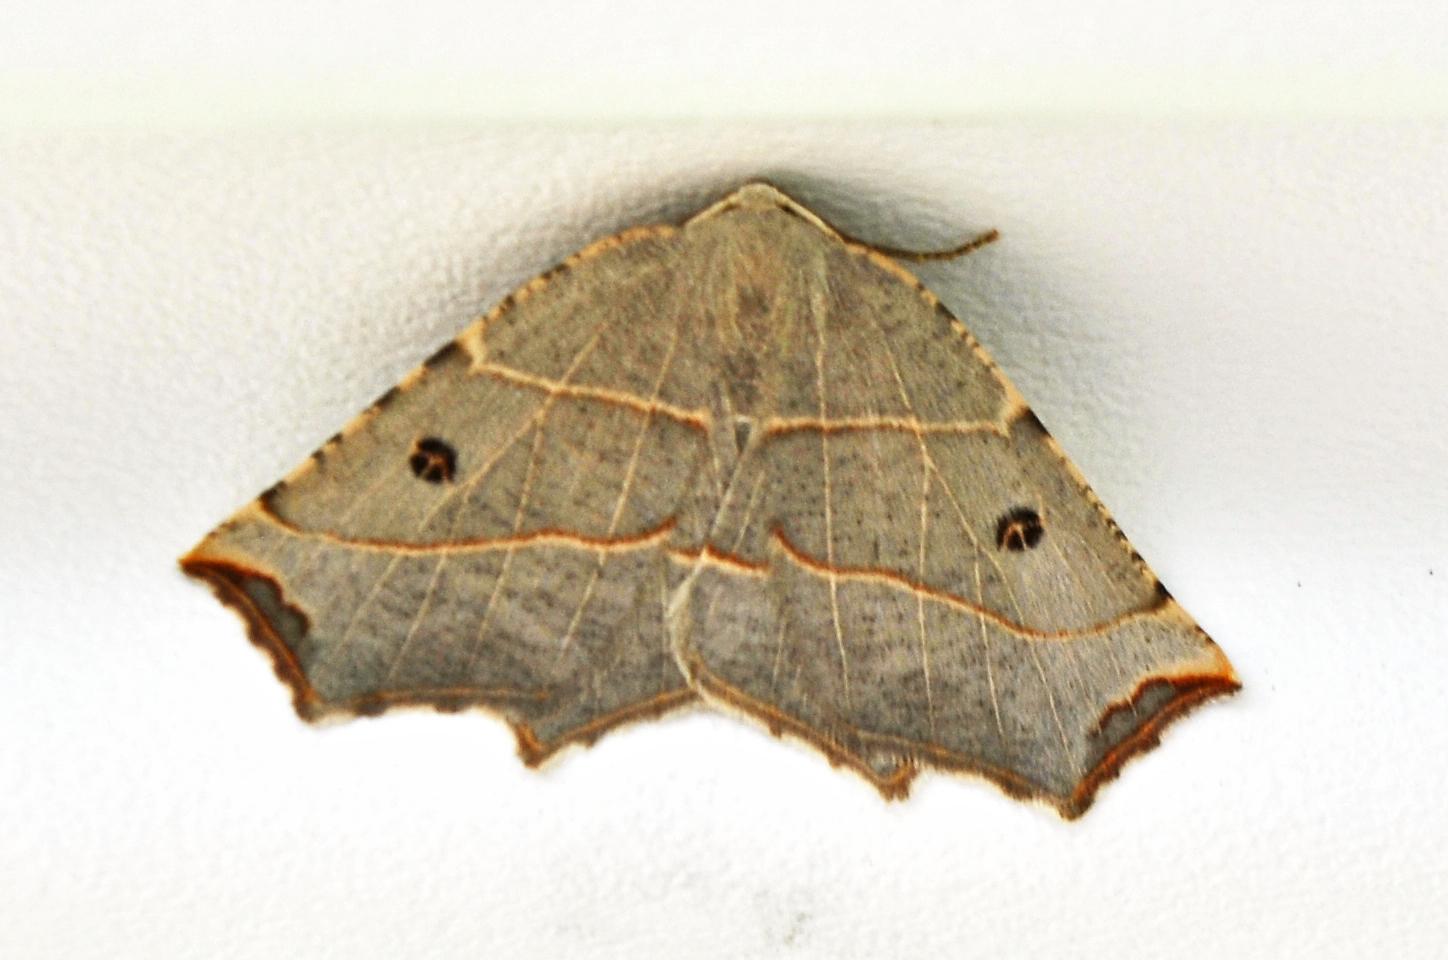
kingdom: Animalia
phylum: Arthropoda
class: Insecta
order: Lepidoptera
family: Geometridae
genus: Metanema
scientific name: Metanema inatomaria
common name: Pale metanema
